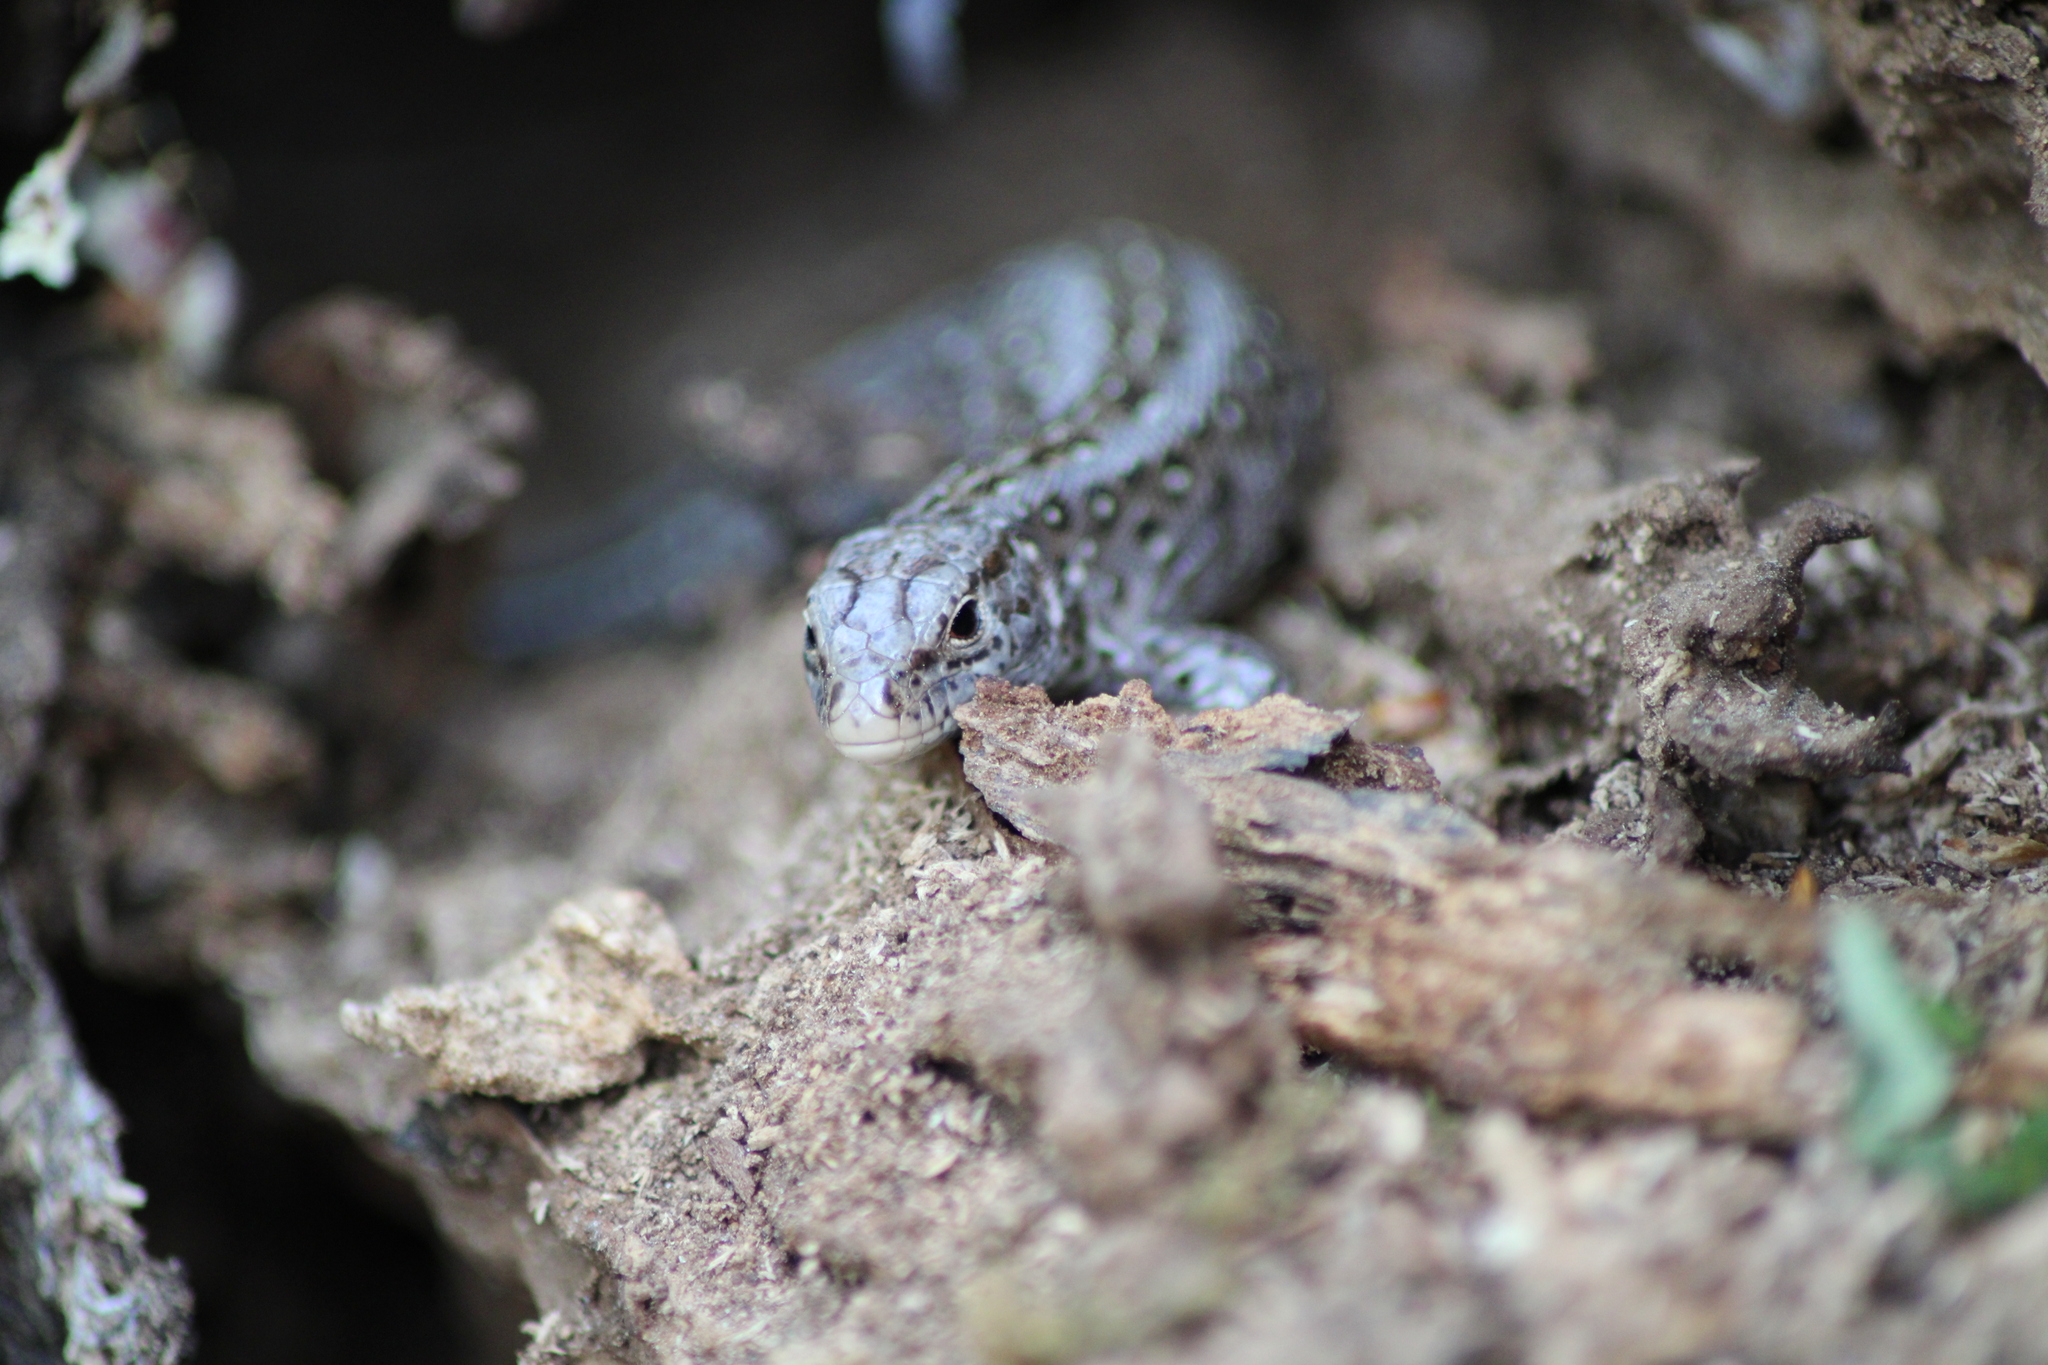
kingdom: Animalia
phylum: Chordata
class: Squamata
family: Lacertidae
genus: Lacerta
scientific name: Lacerta agilis
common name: Sand lizard
